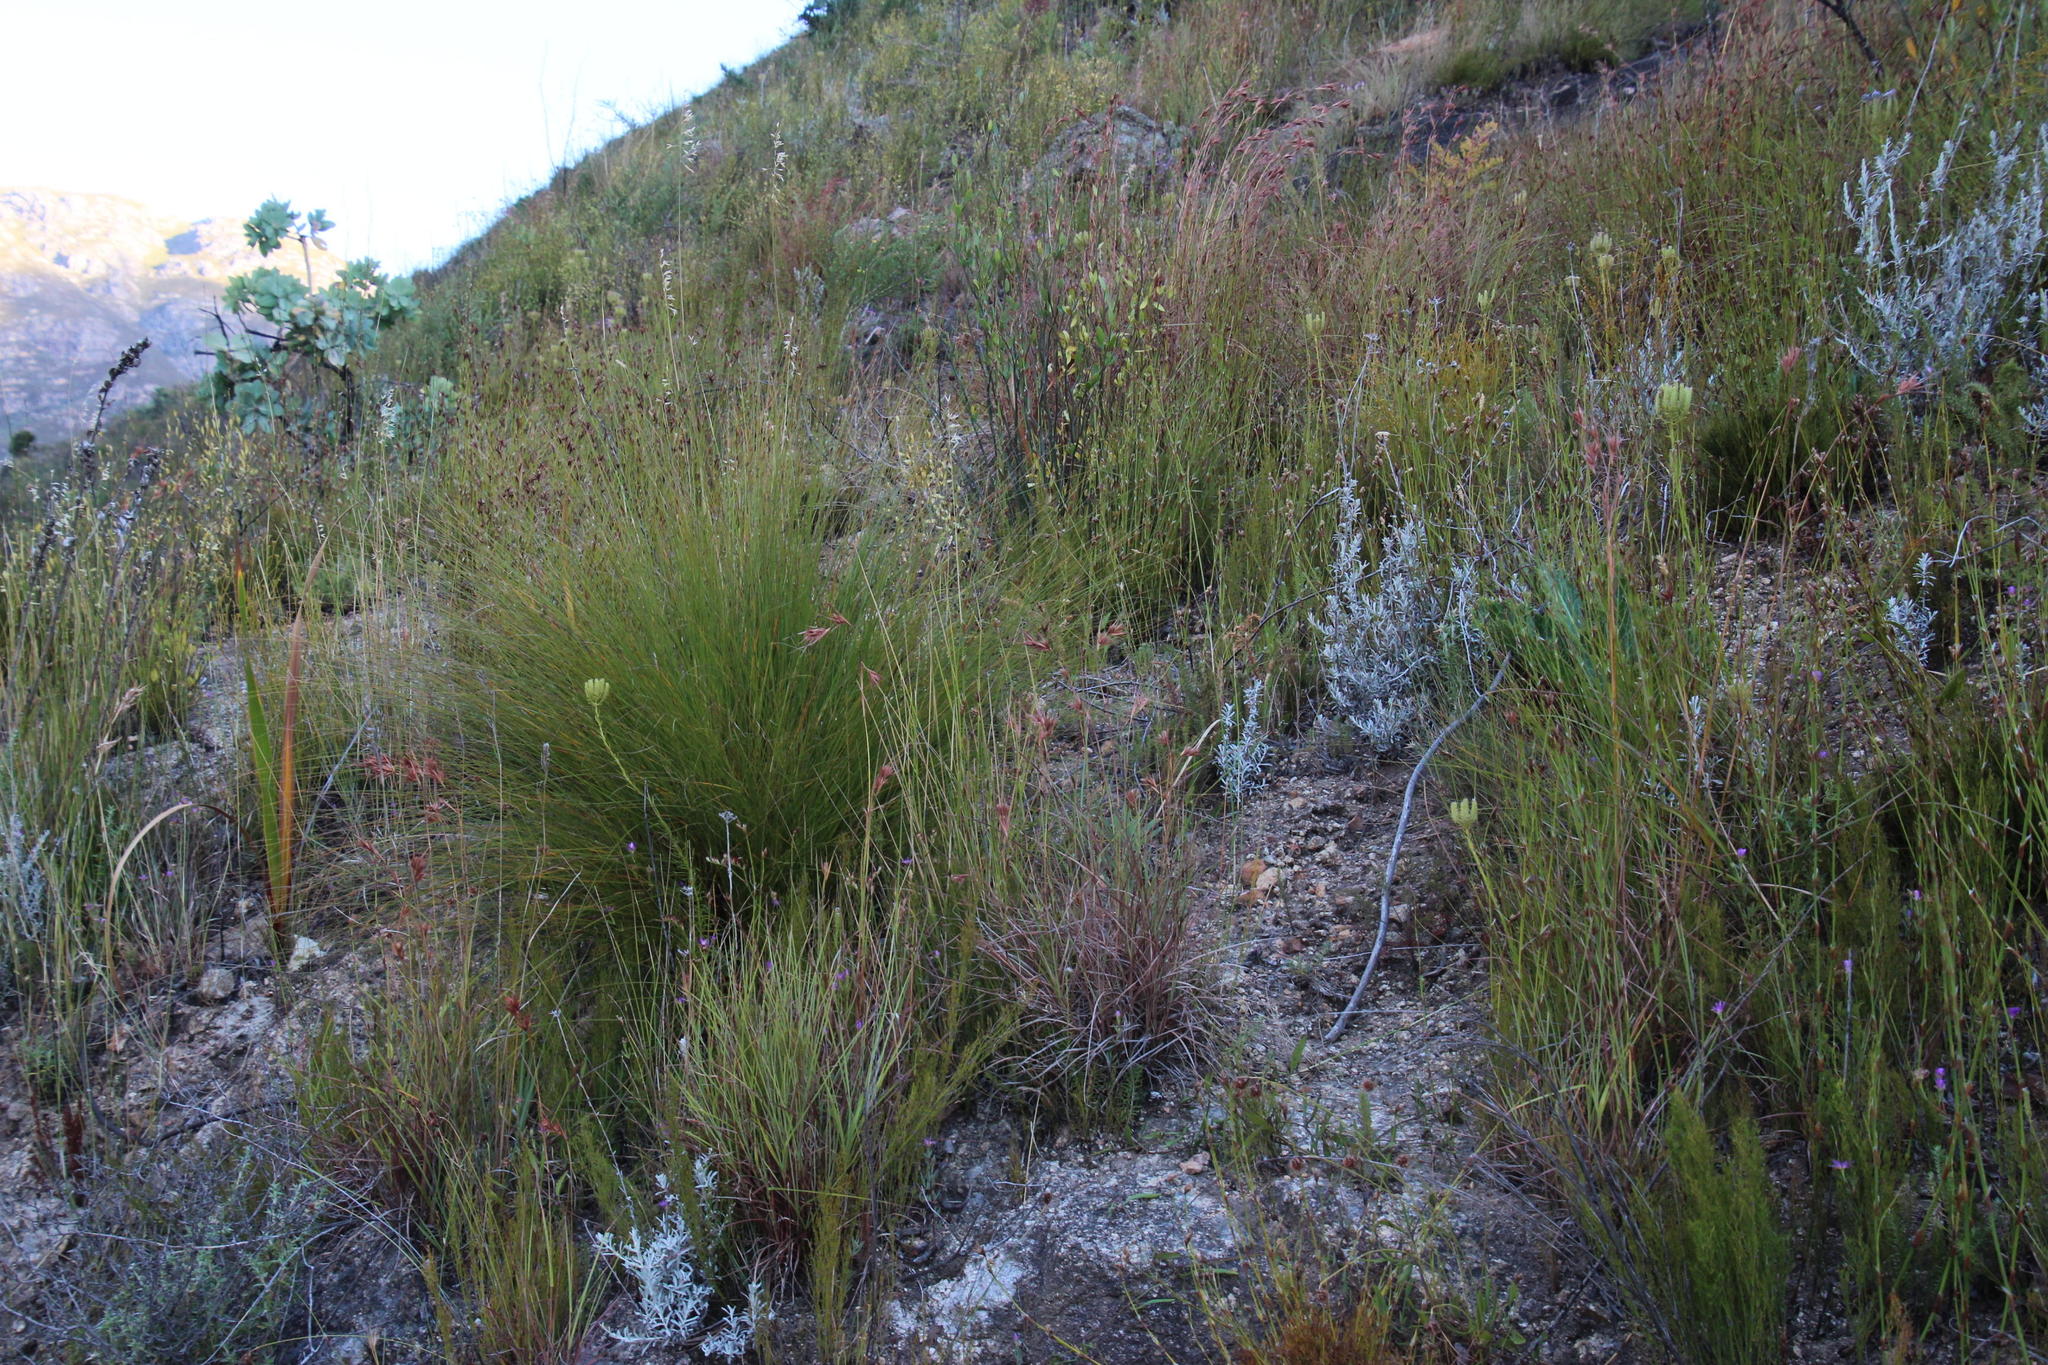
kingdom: Plantae
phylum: Tracheophyta
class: Liliopsida
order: Poales
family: Poaceae
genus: Themeda
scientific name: Themeda triandra
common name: Kangaroo grass
